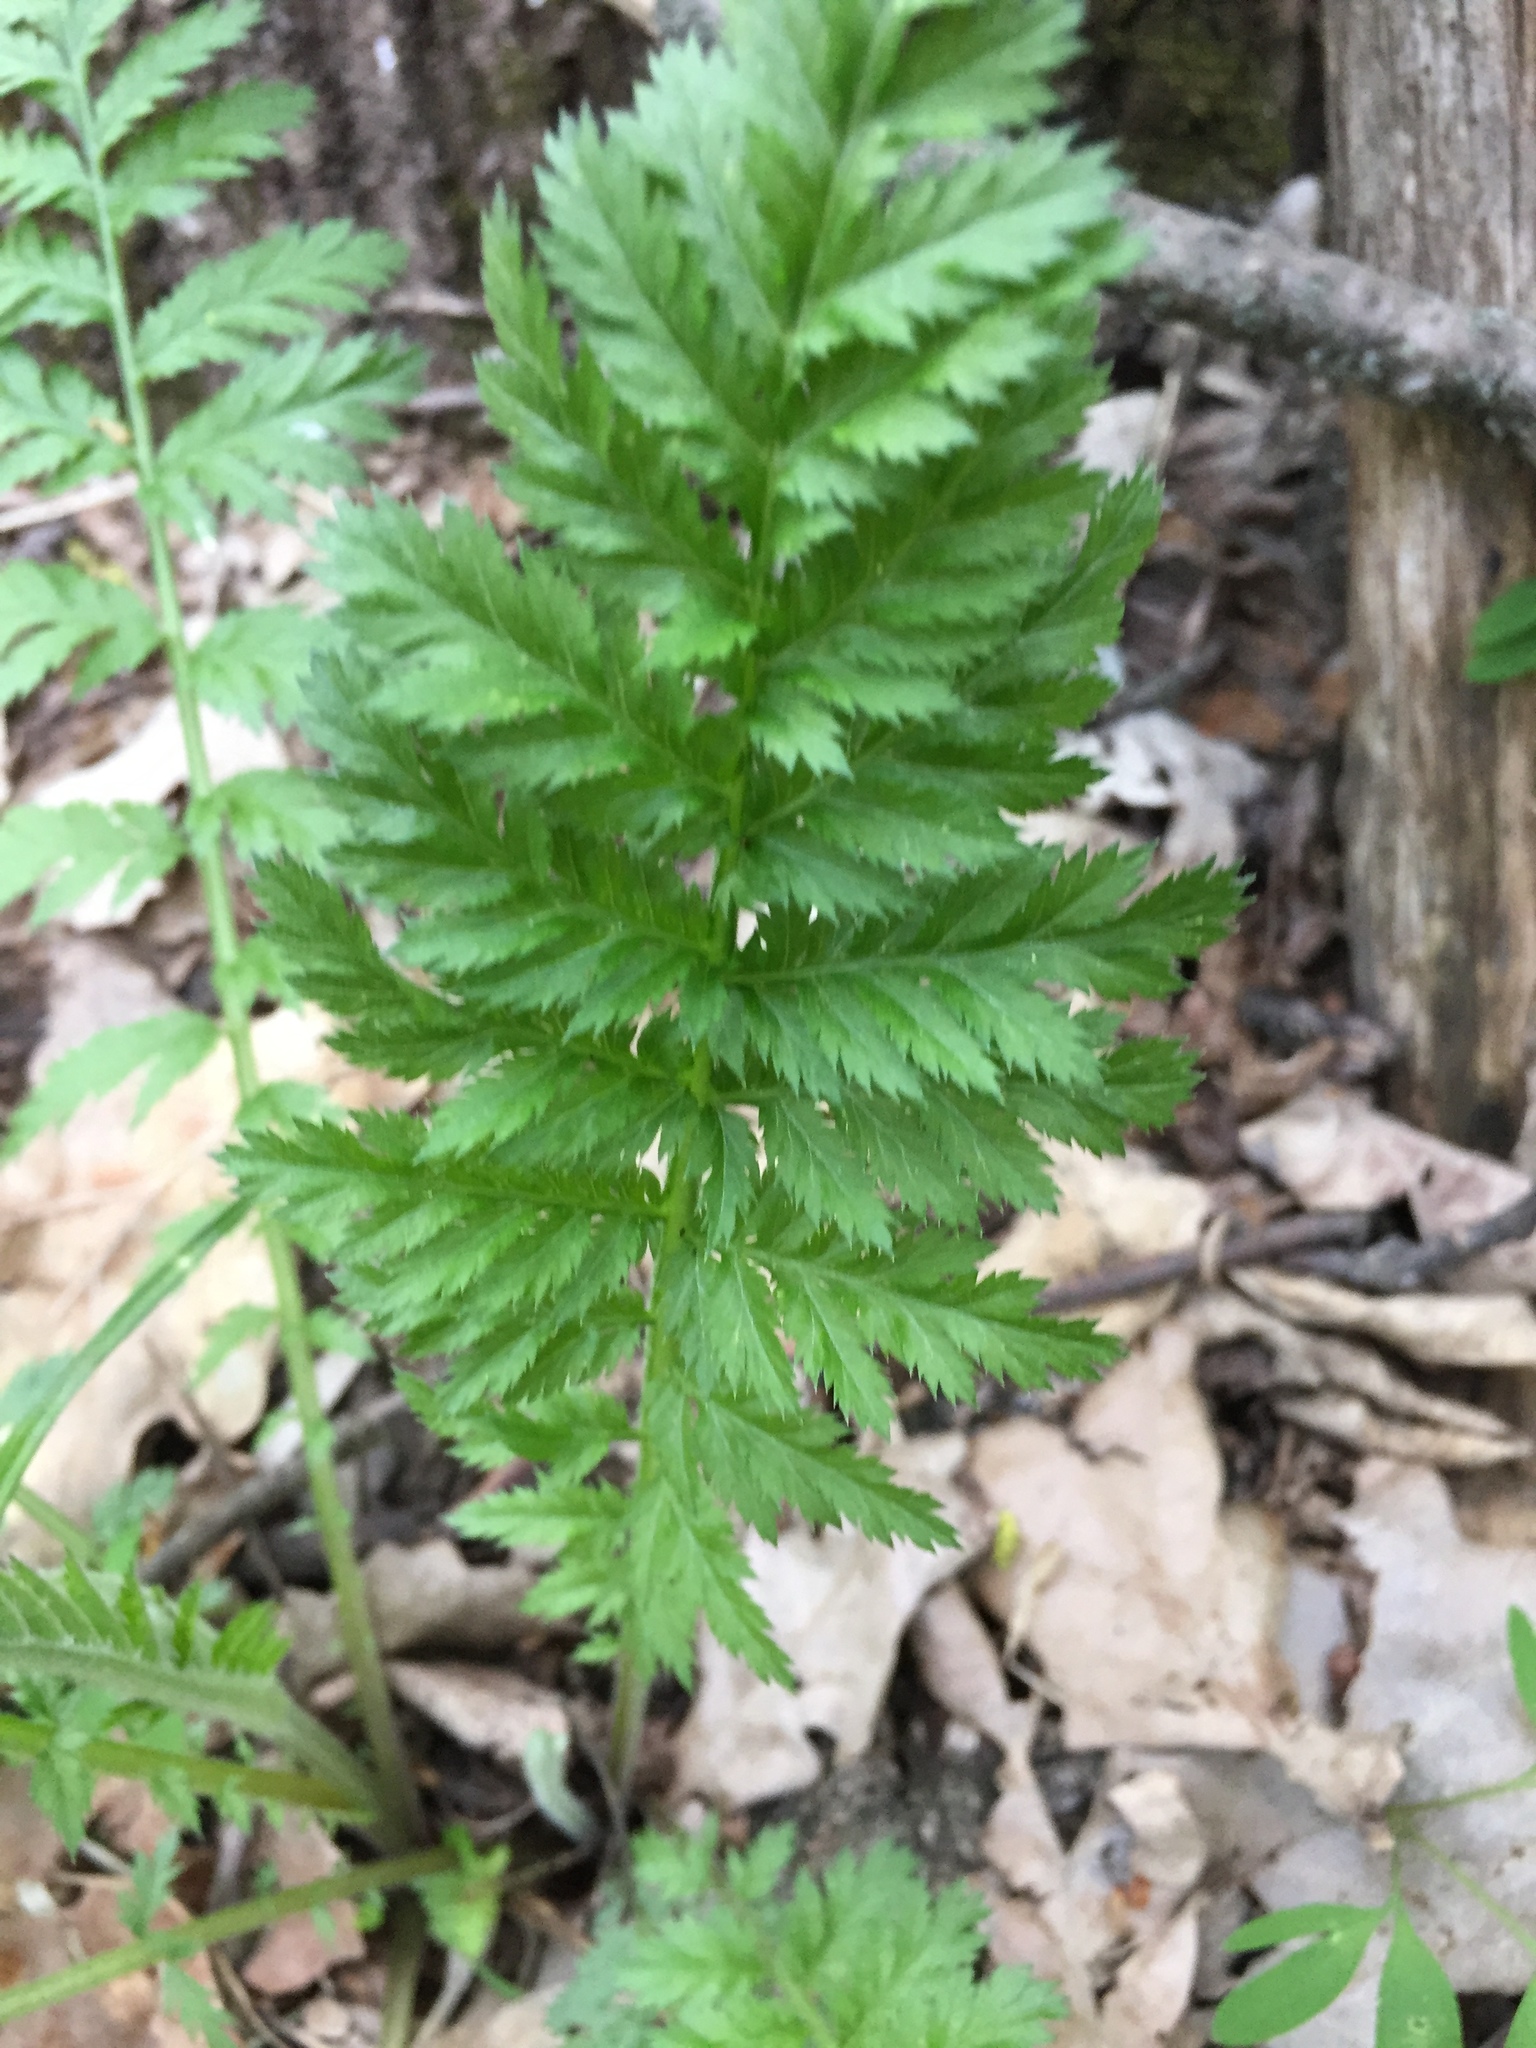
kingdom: Plantae
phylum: Tracheophyta
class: Magnoliopsida
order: Asterales
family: Asteraceae
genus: Tanacetum
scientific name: Tanacetum vulgare
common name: Common tansy
